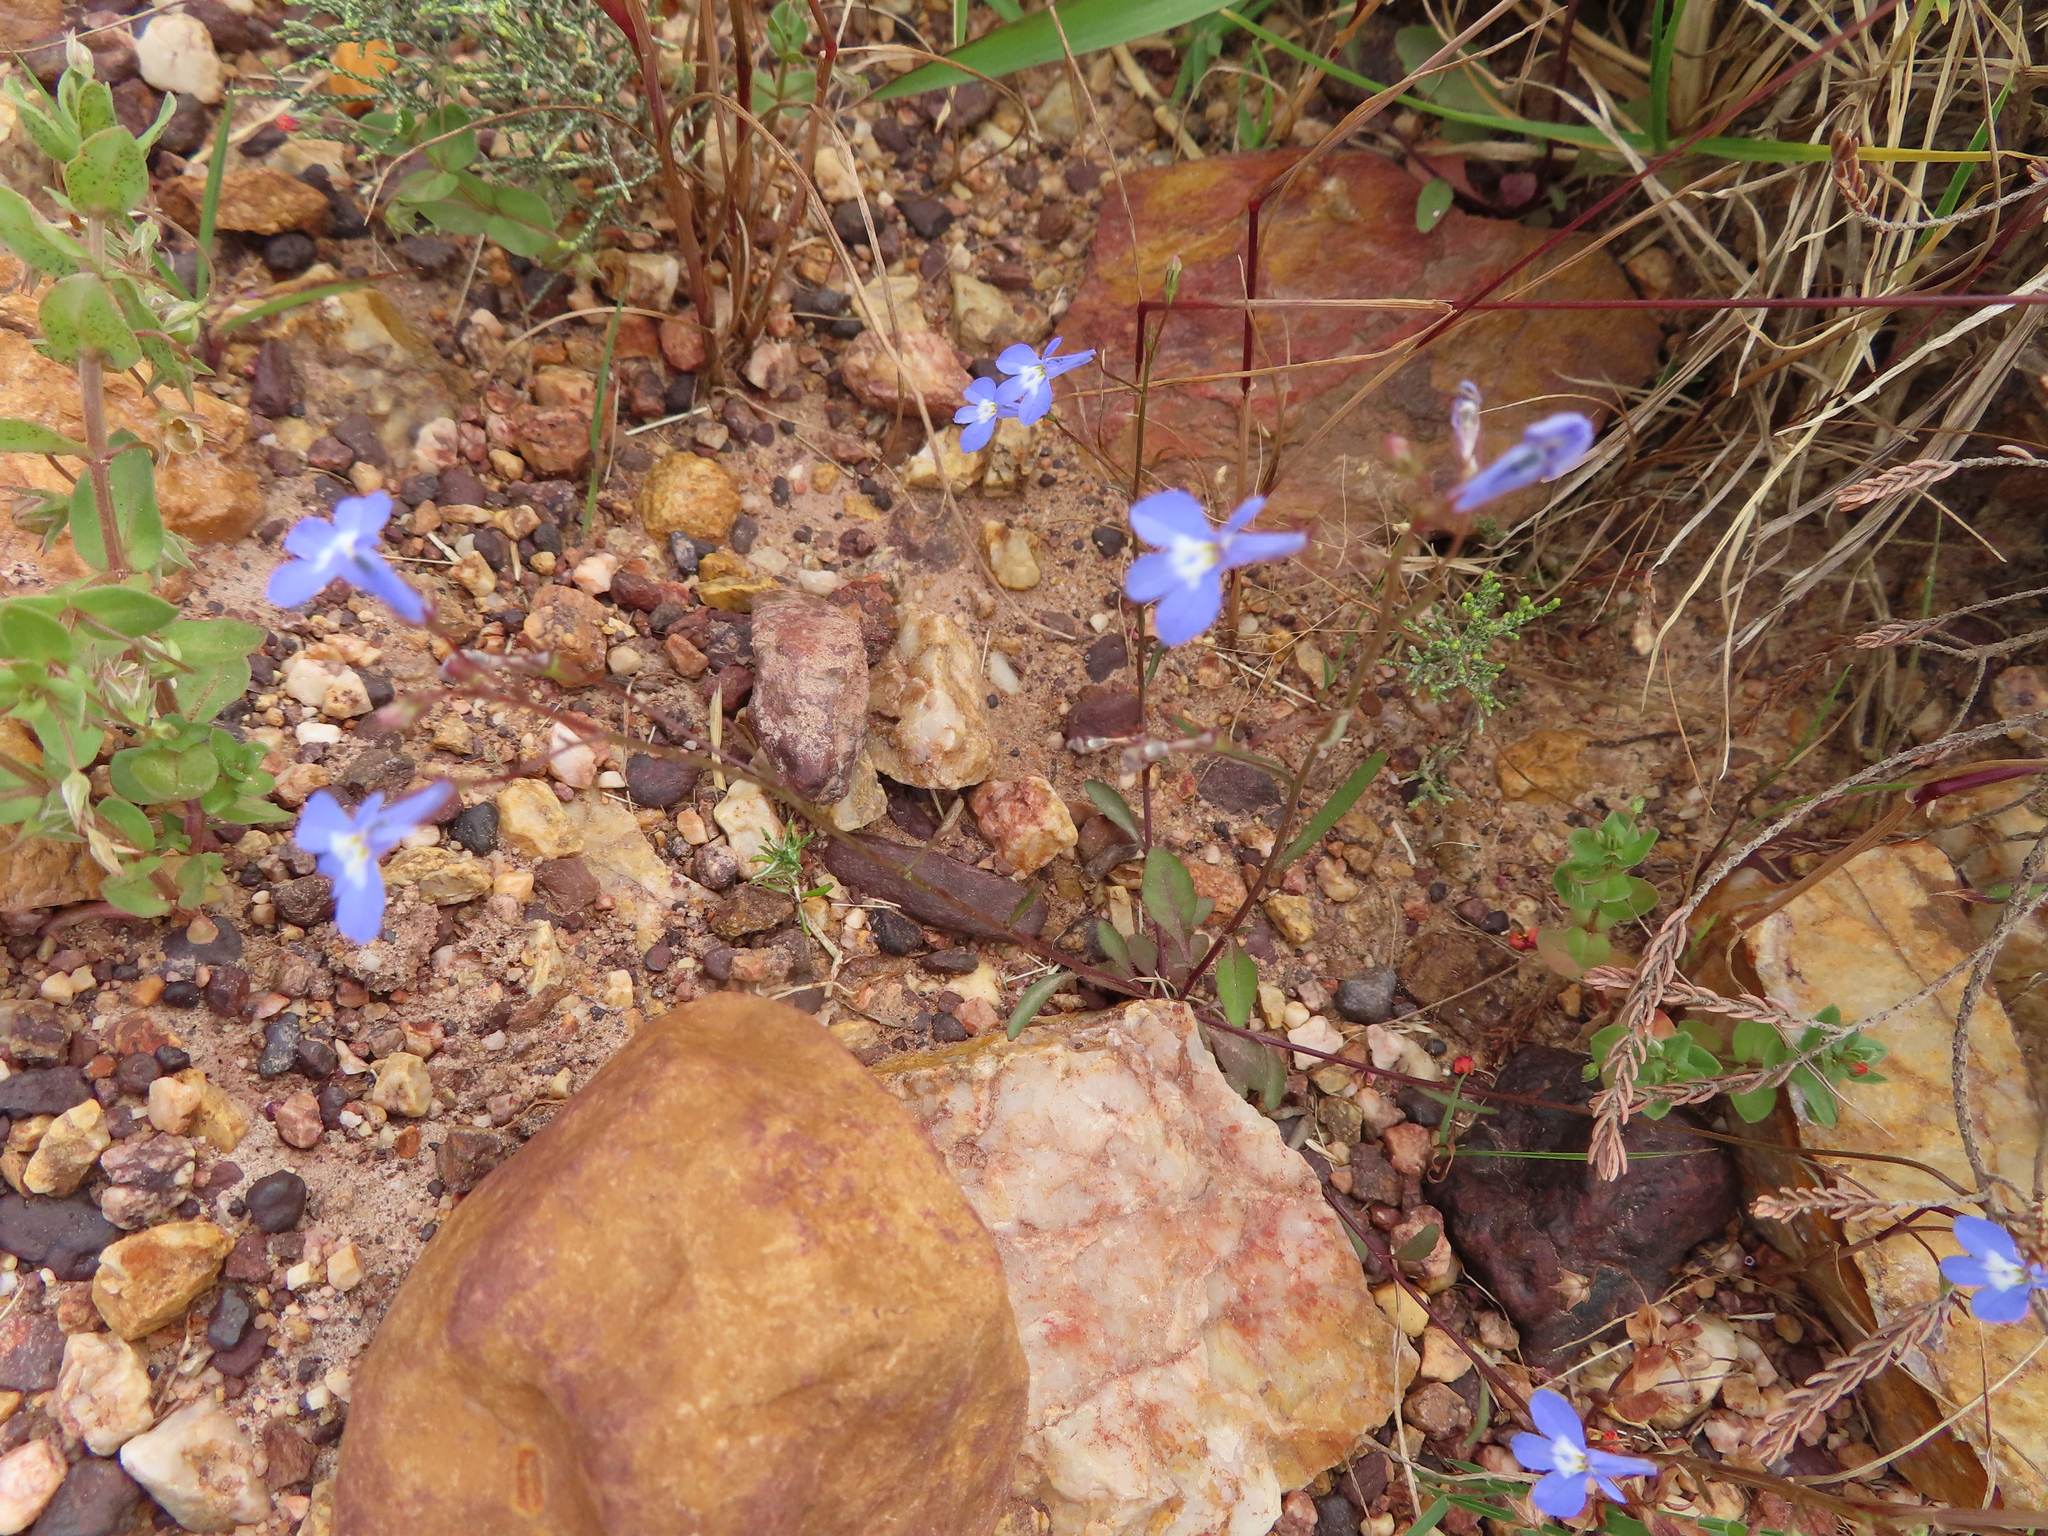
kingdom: Plantae
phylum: Tracheophyta
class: Magnoliopsida
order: Asterales
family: Campanulaceae
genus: Lobelia
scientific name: Lobelia erinus
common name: Edging lobelia
